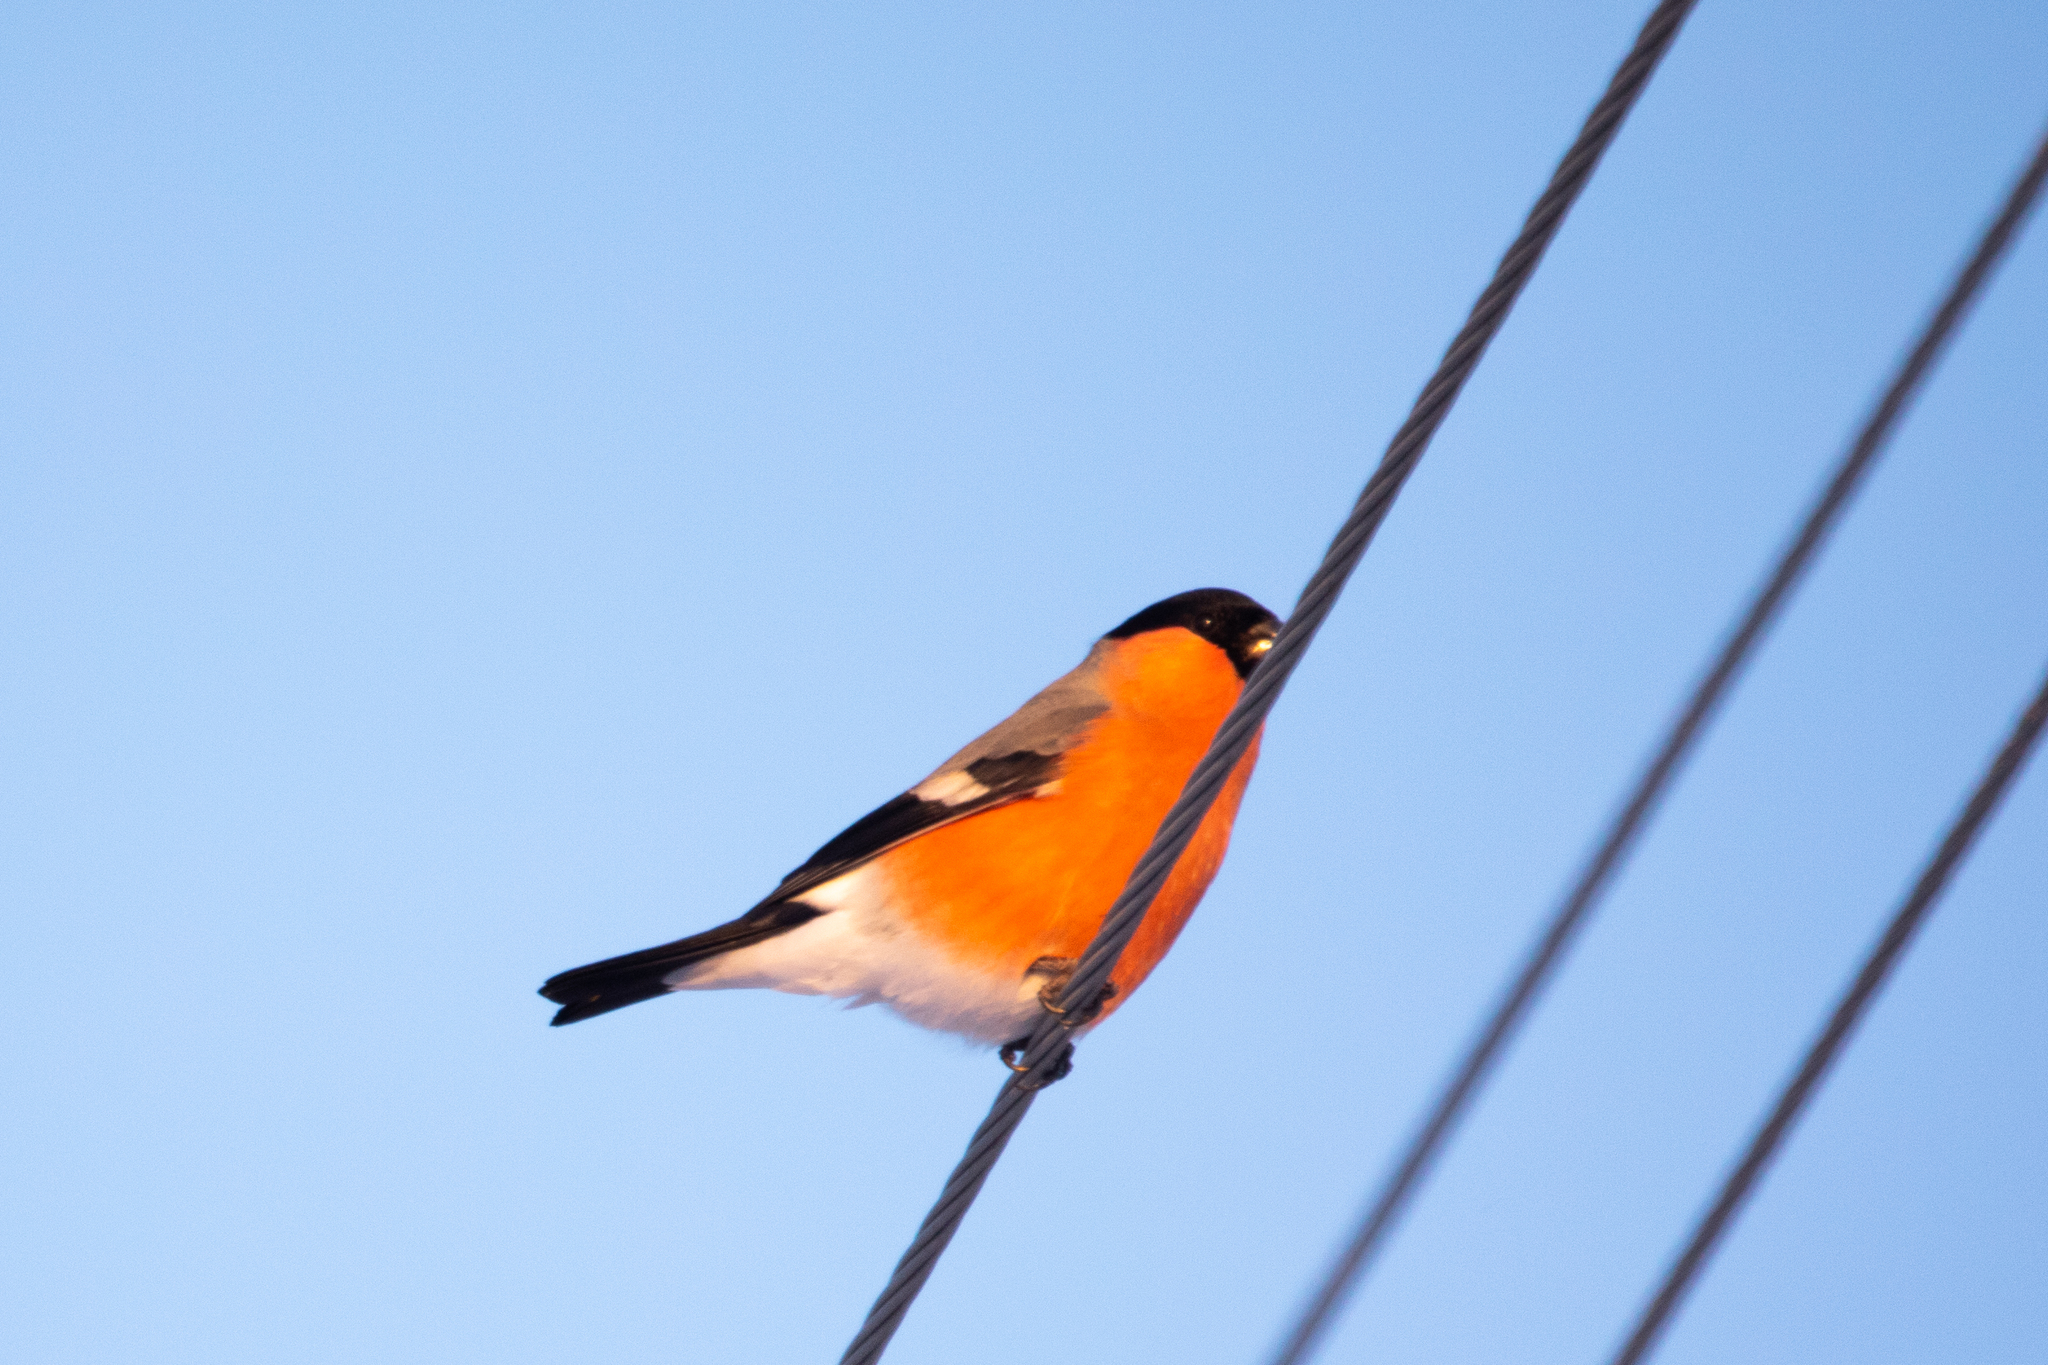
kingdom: Animalia
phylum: Chordata
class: Aves
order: Passeriformes
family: Fringillidae
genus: Pyrrhula
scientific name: Pyrrhula pyrrhula
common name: Eurasian bullfinch
